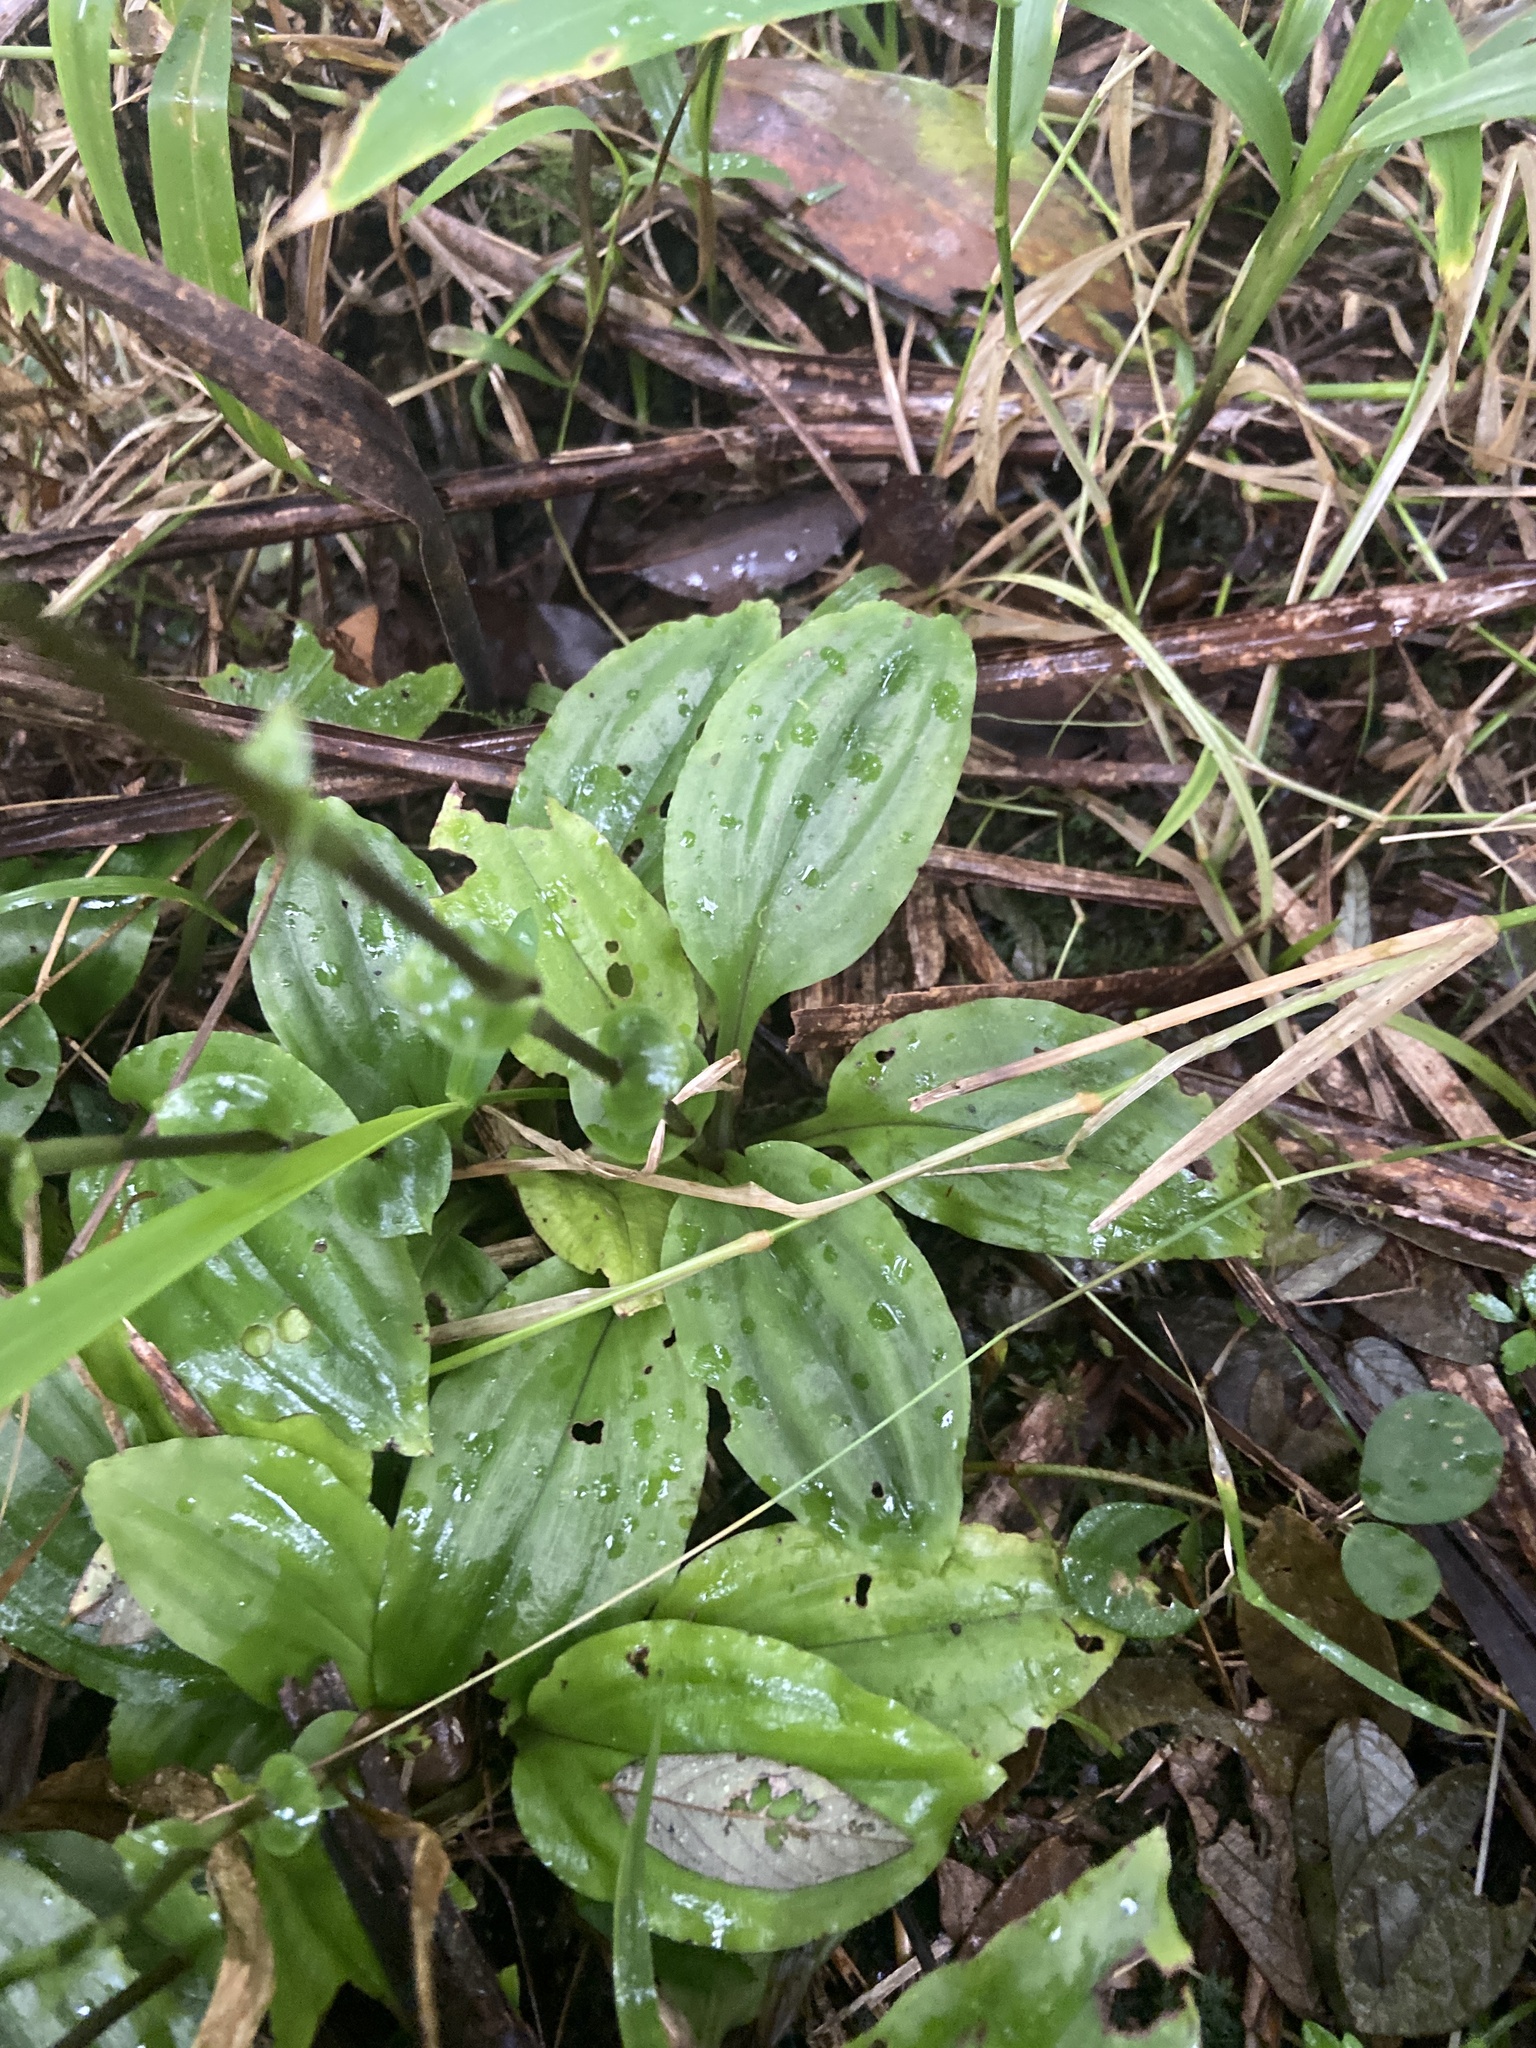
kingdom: Plantae
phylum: Tracheophyta
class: Liliopsida
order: Asparagales
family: Orchidaceae
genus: Cranichis
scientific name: Cranichis muscosa
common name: Cypress-knee helmet orchid
